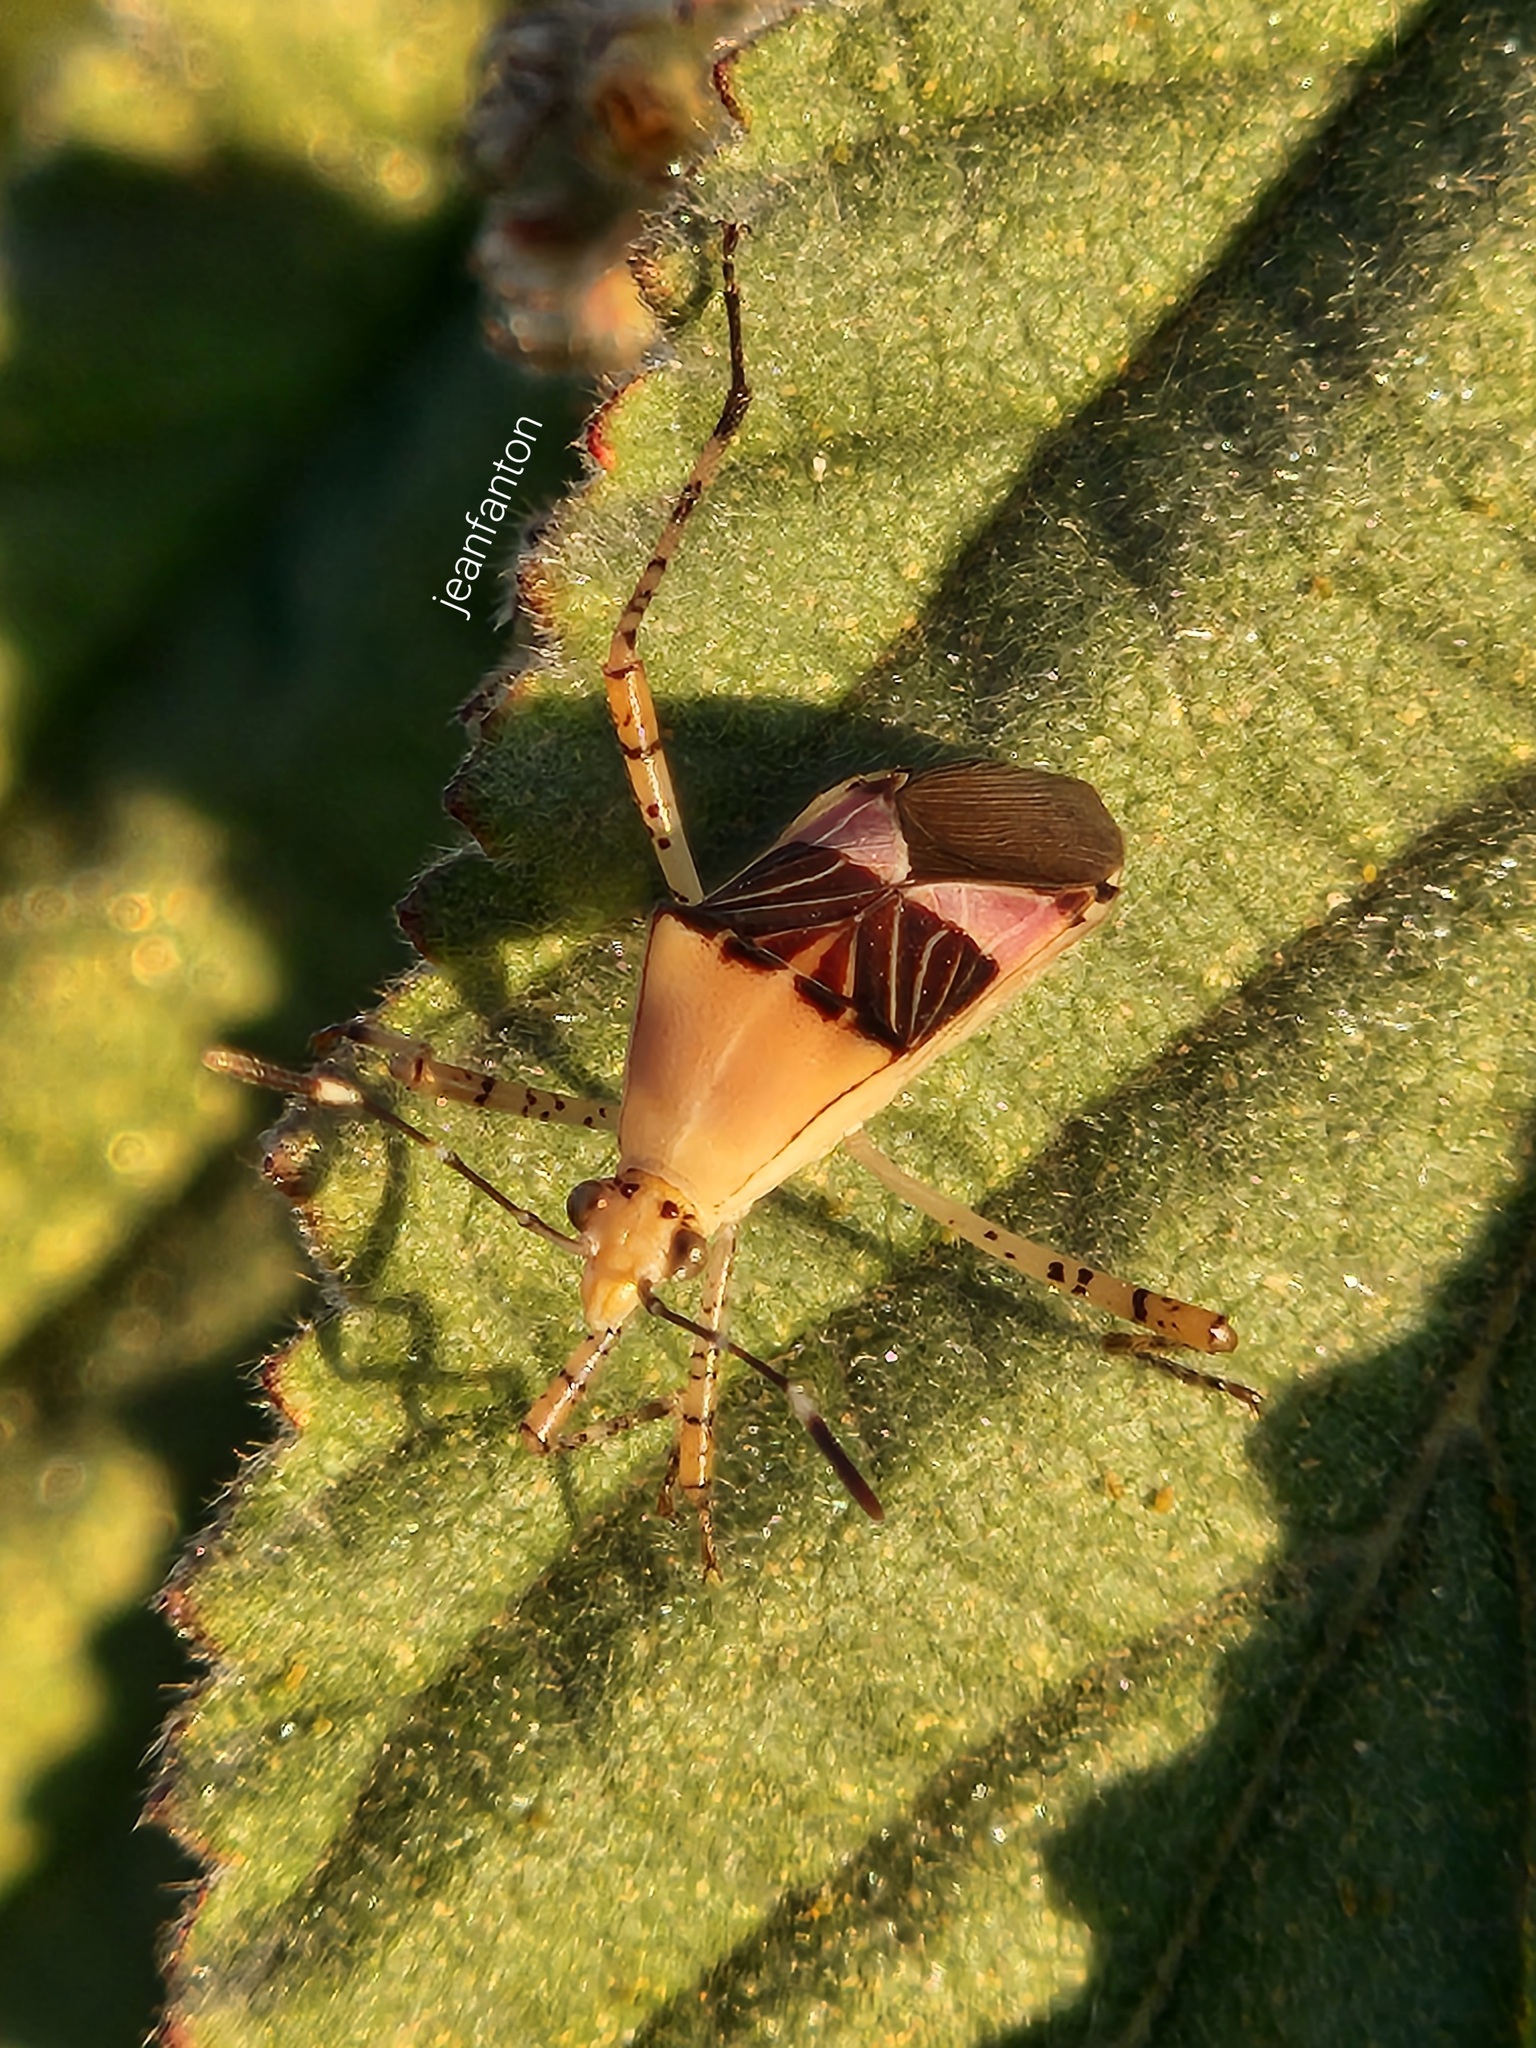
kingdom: Animalia
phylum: Arthropoda
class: Insecta
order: Hemiptera
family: Coreidae
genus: Hypselonotus
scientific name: Hypselonotus fulvus
